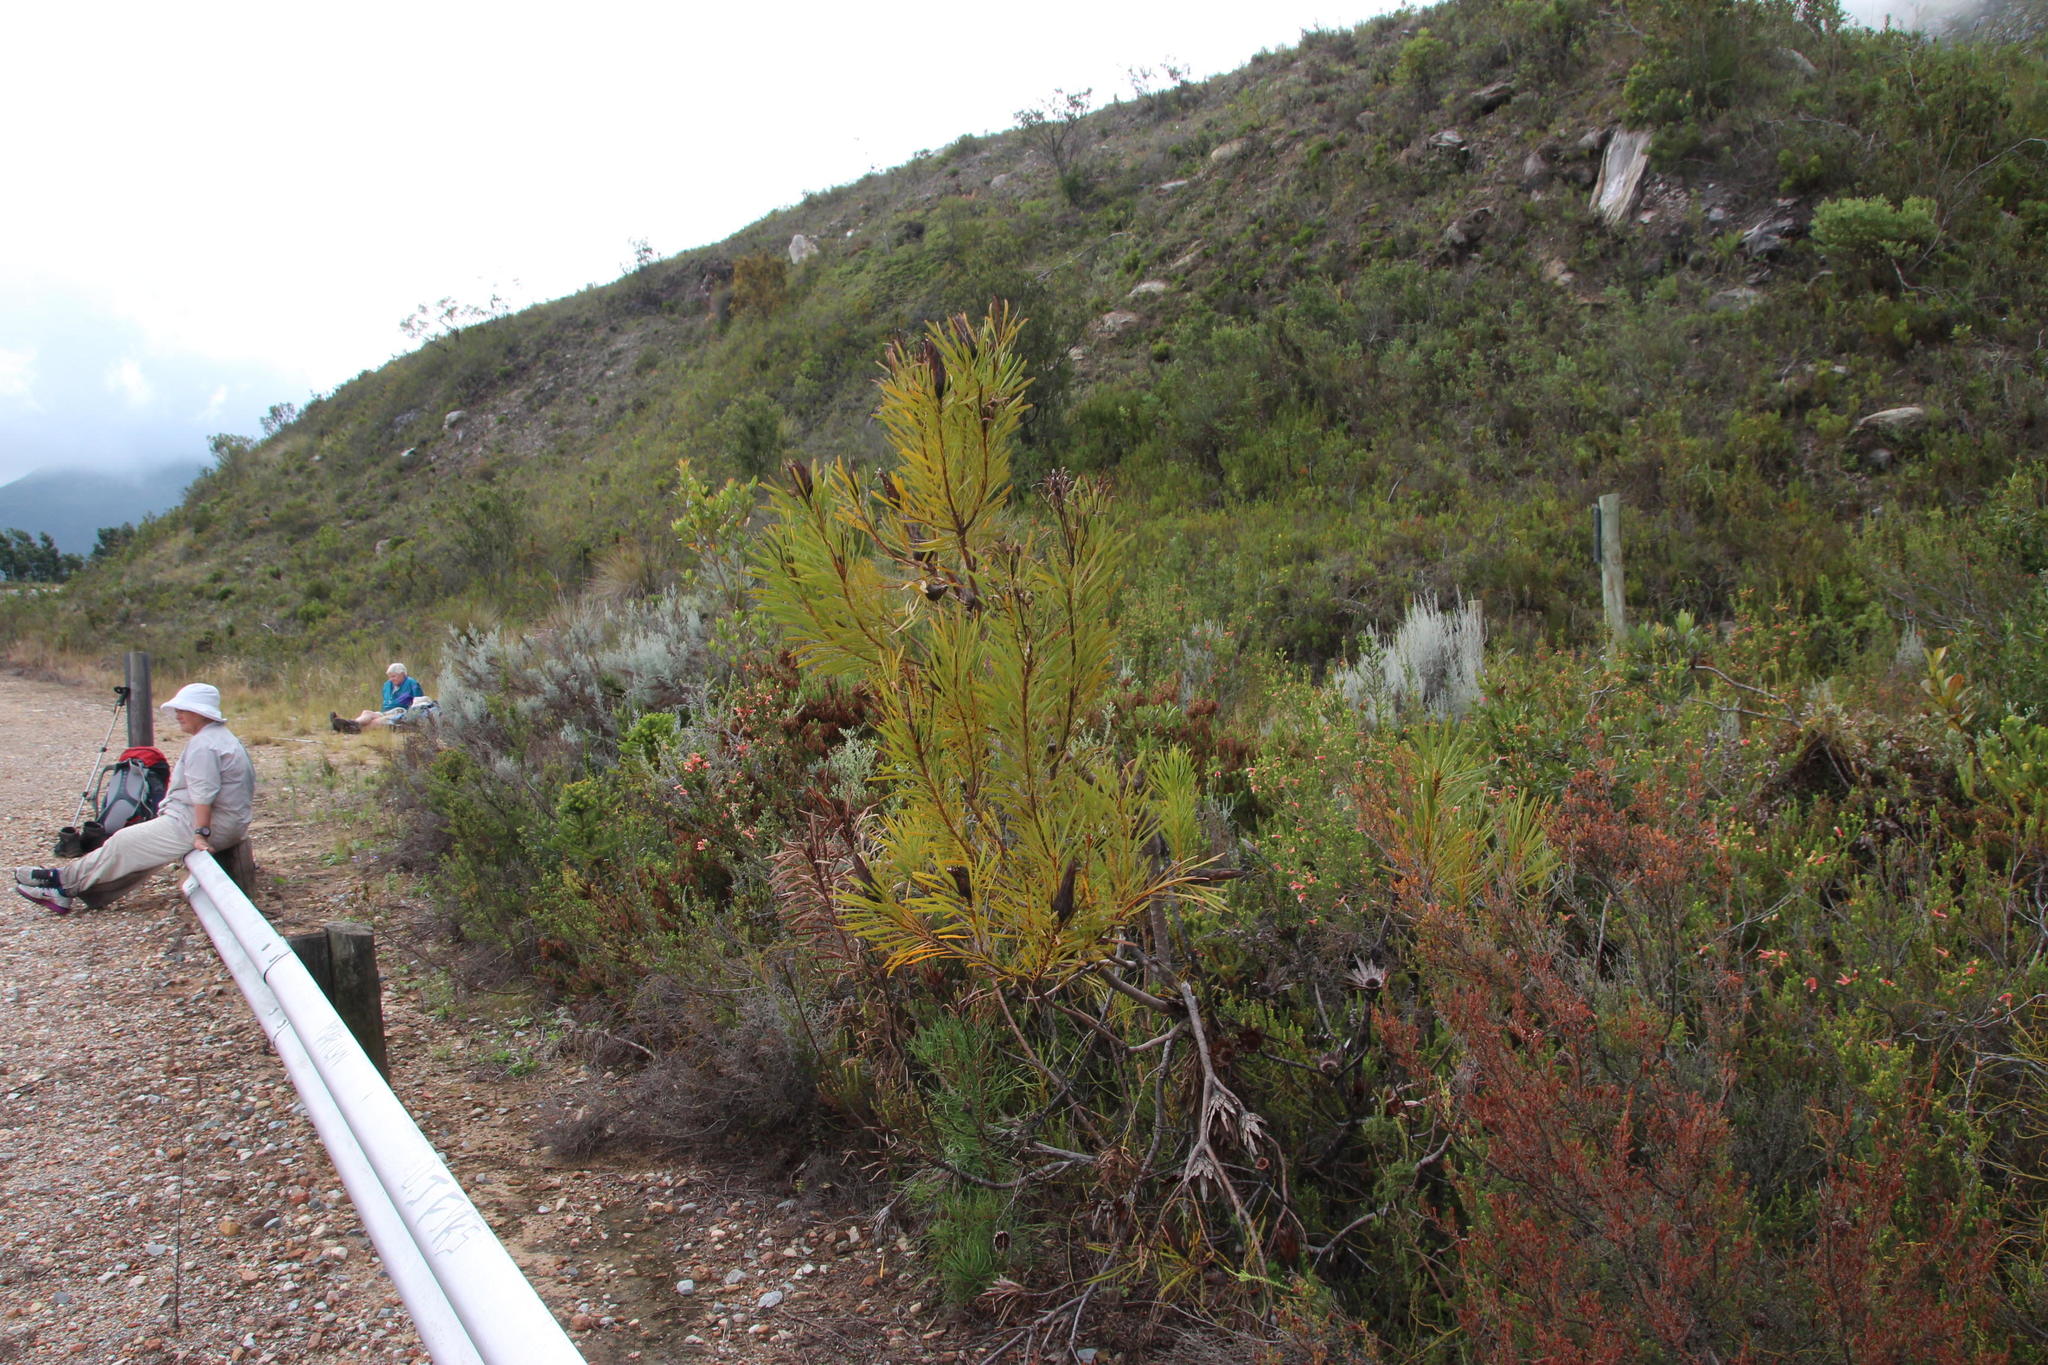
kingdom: Plantae
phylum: Tracheophyta
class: Magnoliopsida
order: Proteales
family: Proteaceae
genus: Protea
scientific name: Protea repens
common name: Sugarbush
